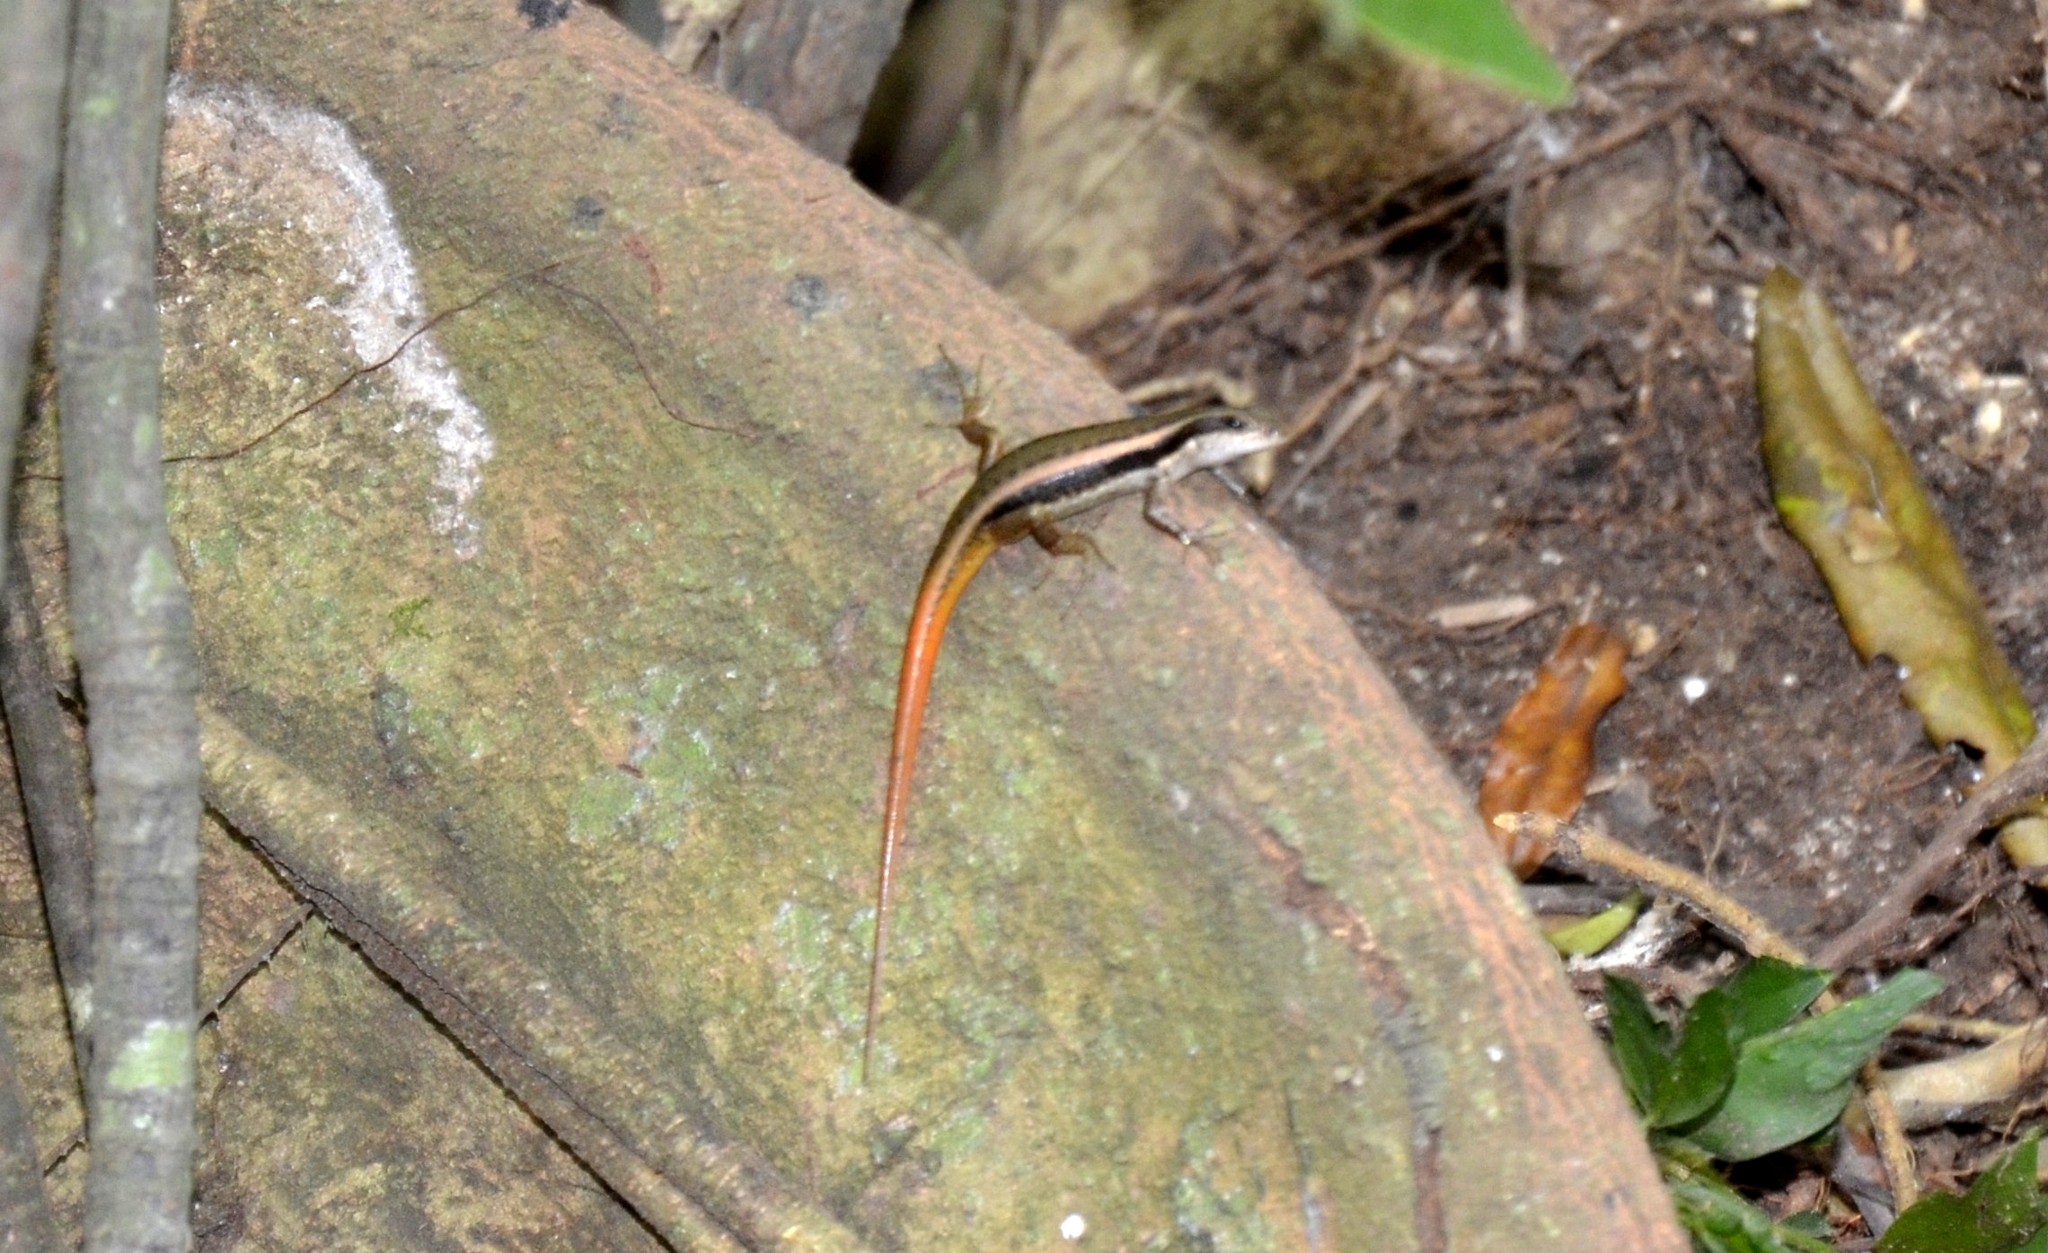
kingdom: Animalia
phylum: Chordata
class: Squamata
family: Scincidae
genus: Sphenomorphus
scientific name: Sphenomorphus dussumieri
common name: Dussumier's forest skink
